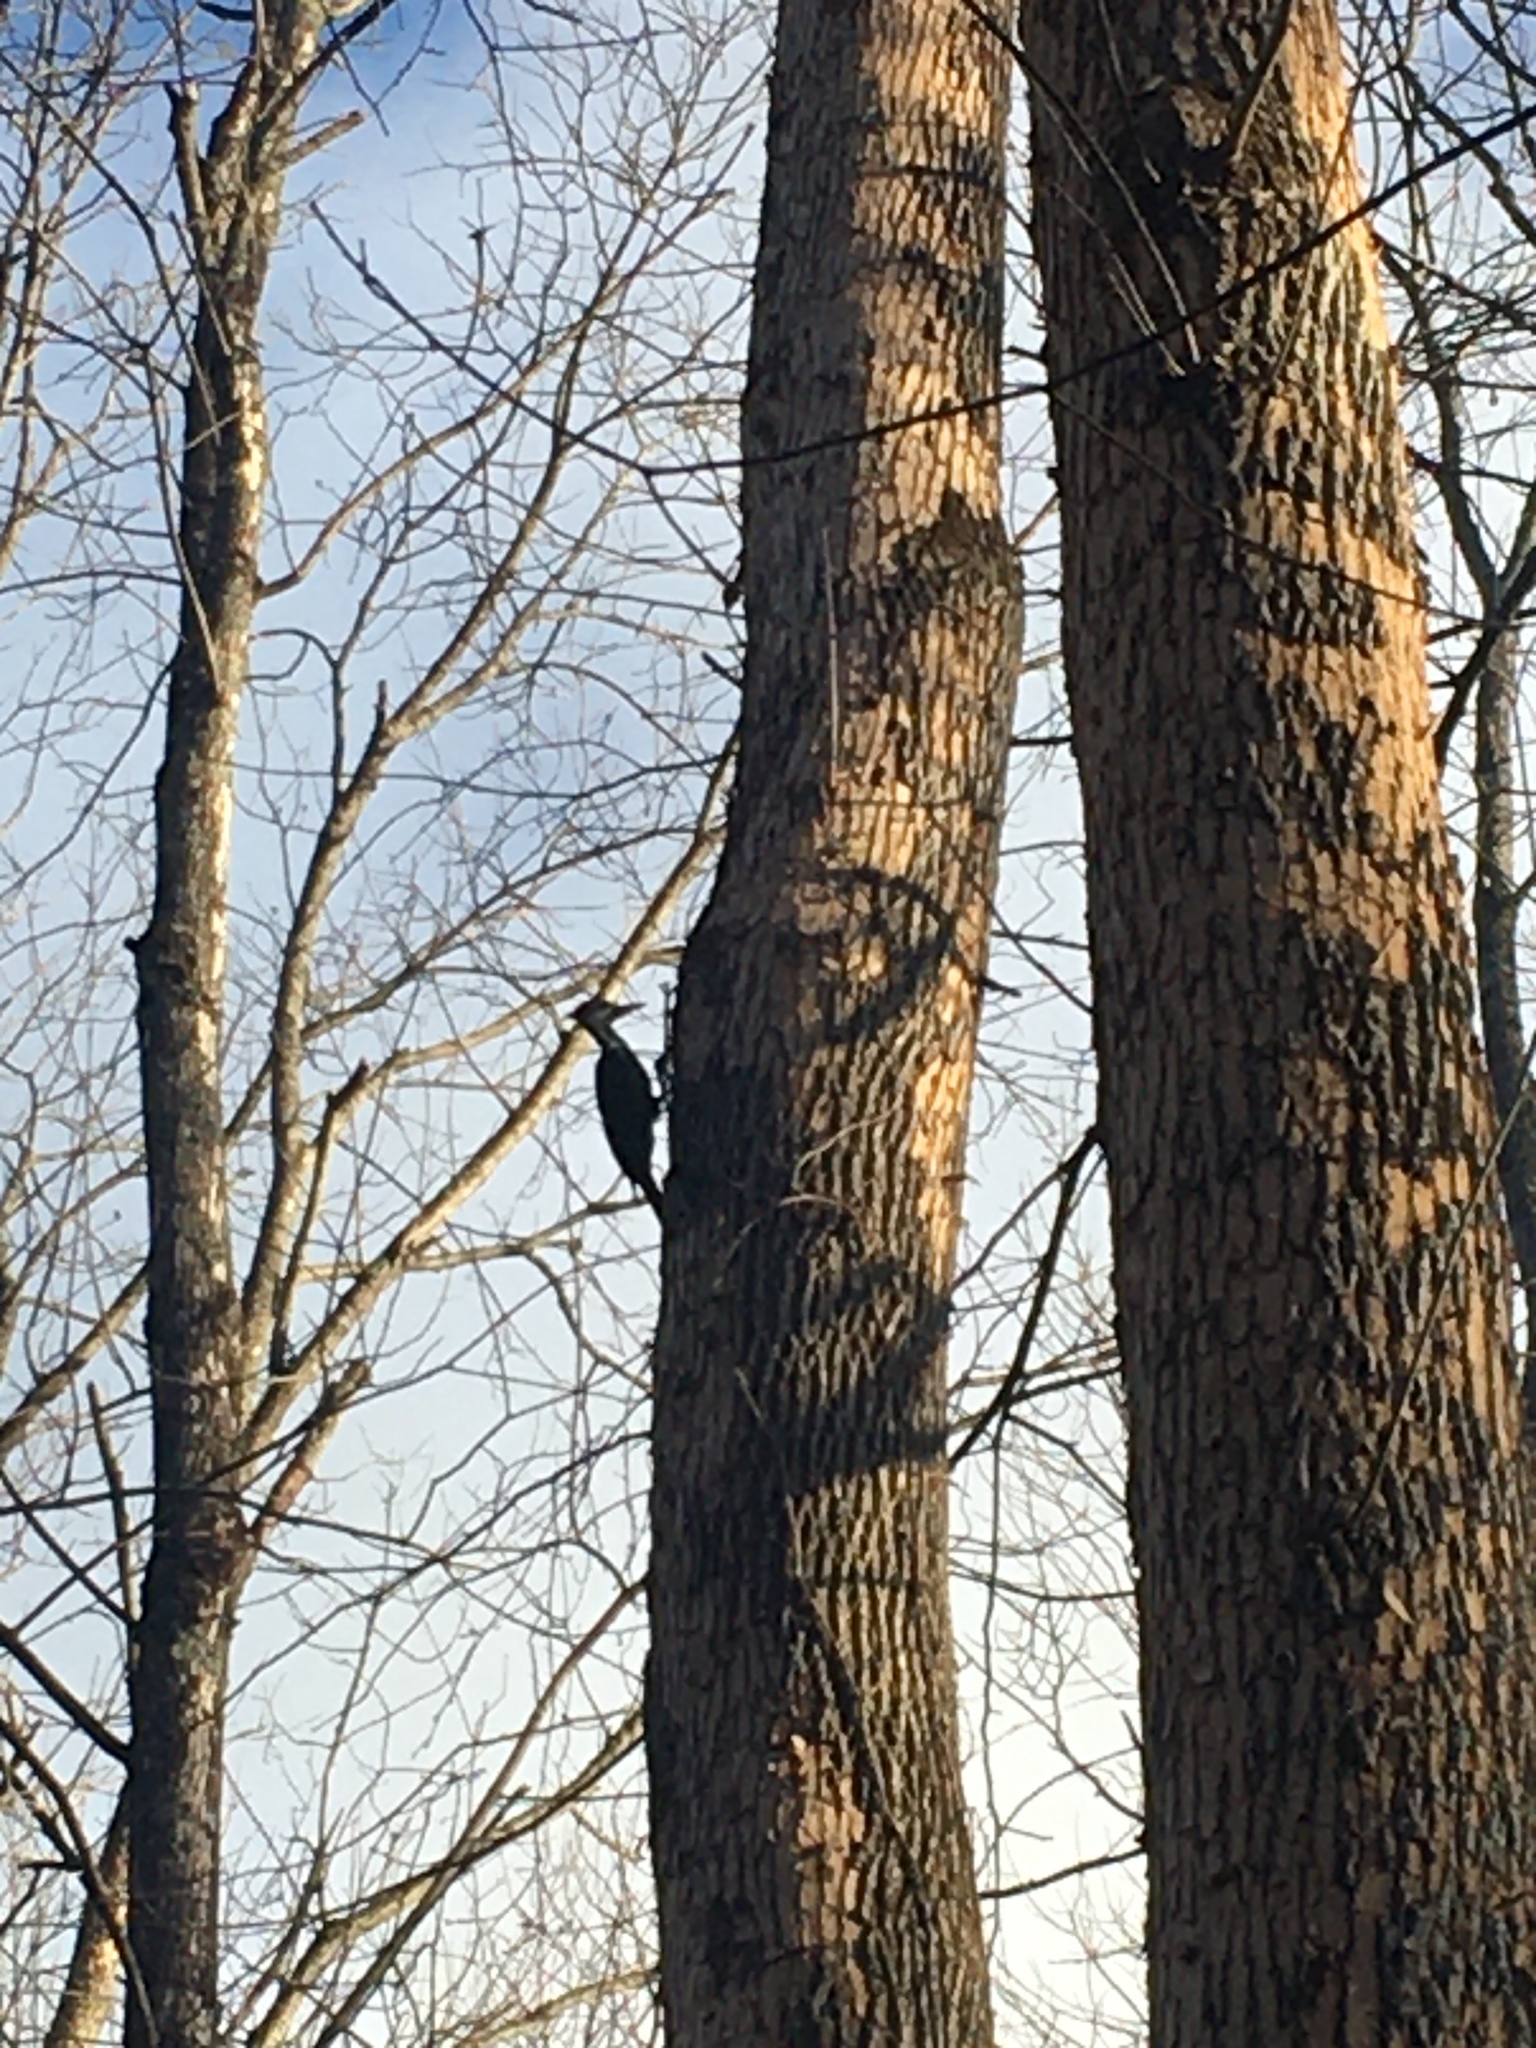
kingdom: Animalia
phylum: Chordata
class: Aves
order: Piciformes
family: Picidae
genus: Dryocopus
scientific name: Dryocopus pileatus
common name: Pileated woodpecker
